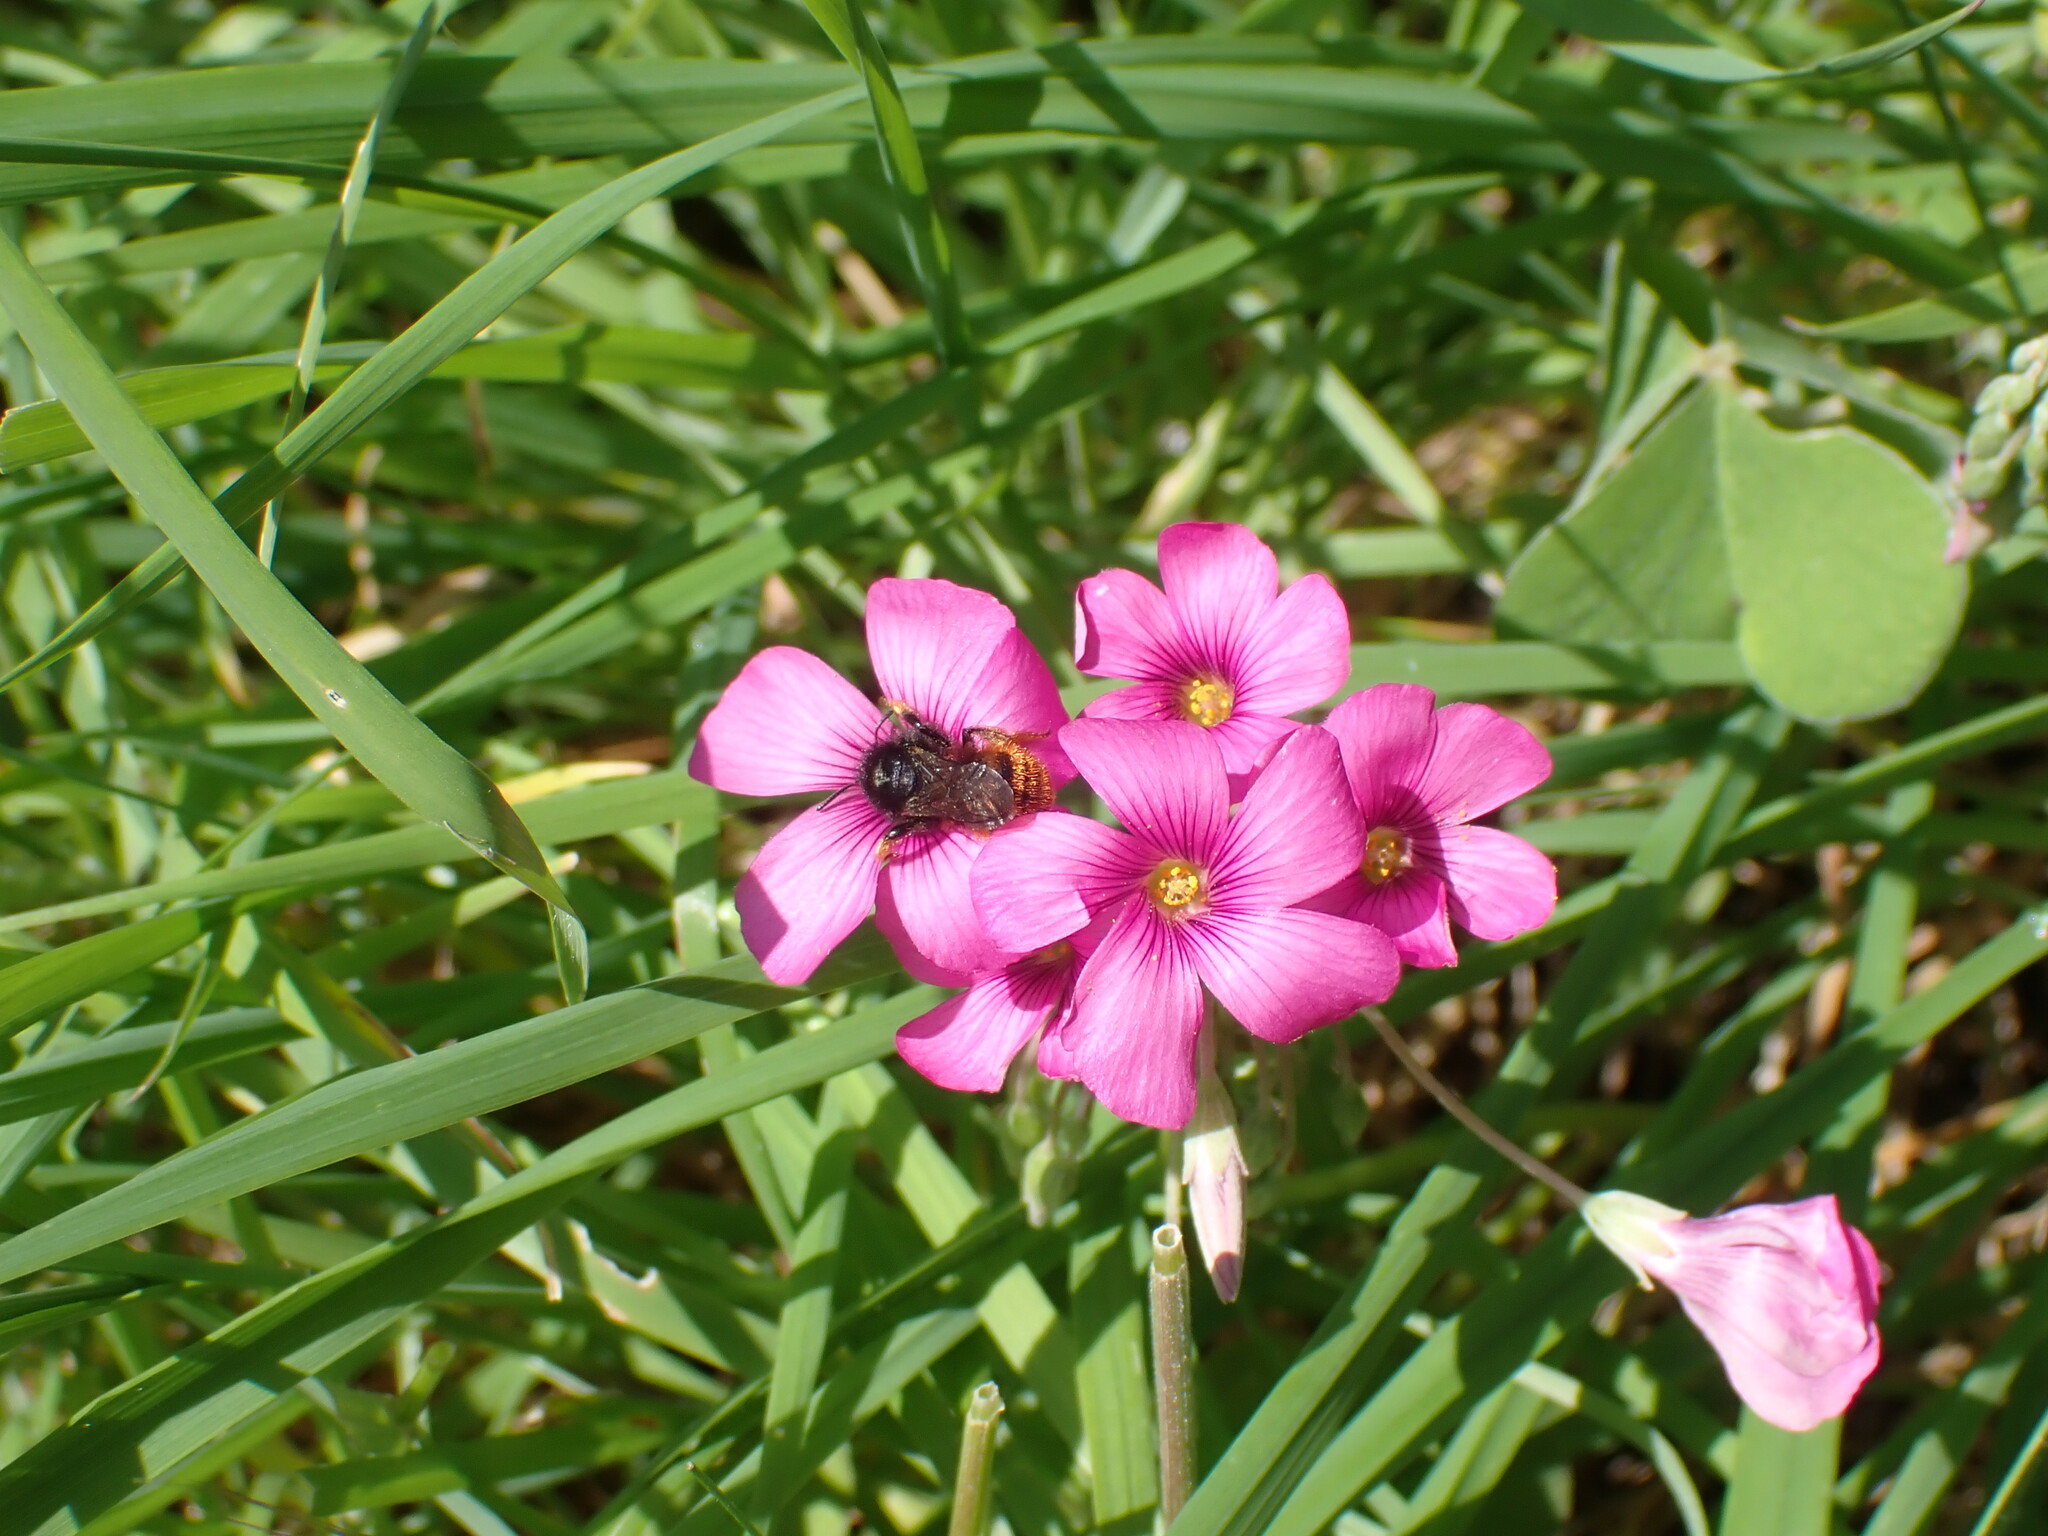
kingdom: Animalia
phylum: Arthropoda
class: Insecta
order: Hymenoptera
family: Megachilidae
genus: Osmia
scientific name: Osmia bicolor
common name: Red-tailed mason bee
